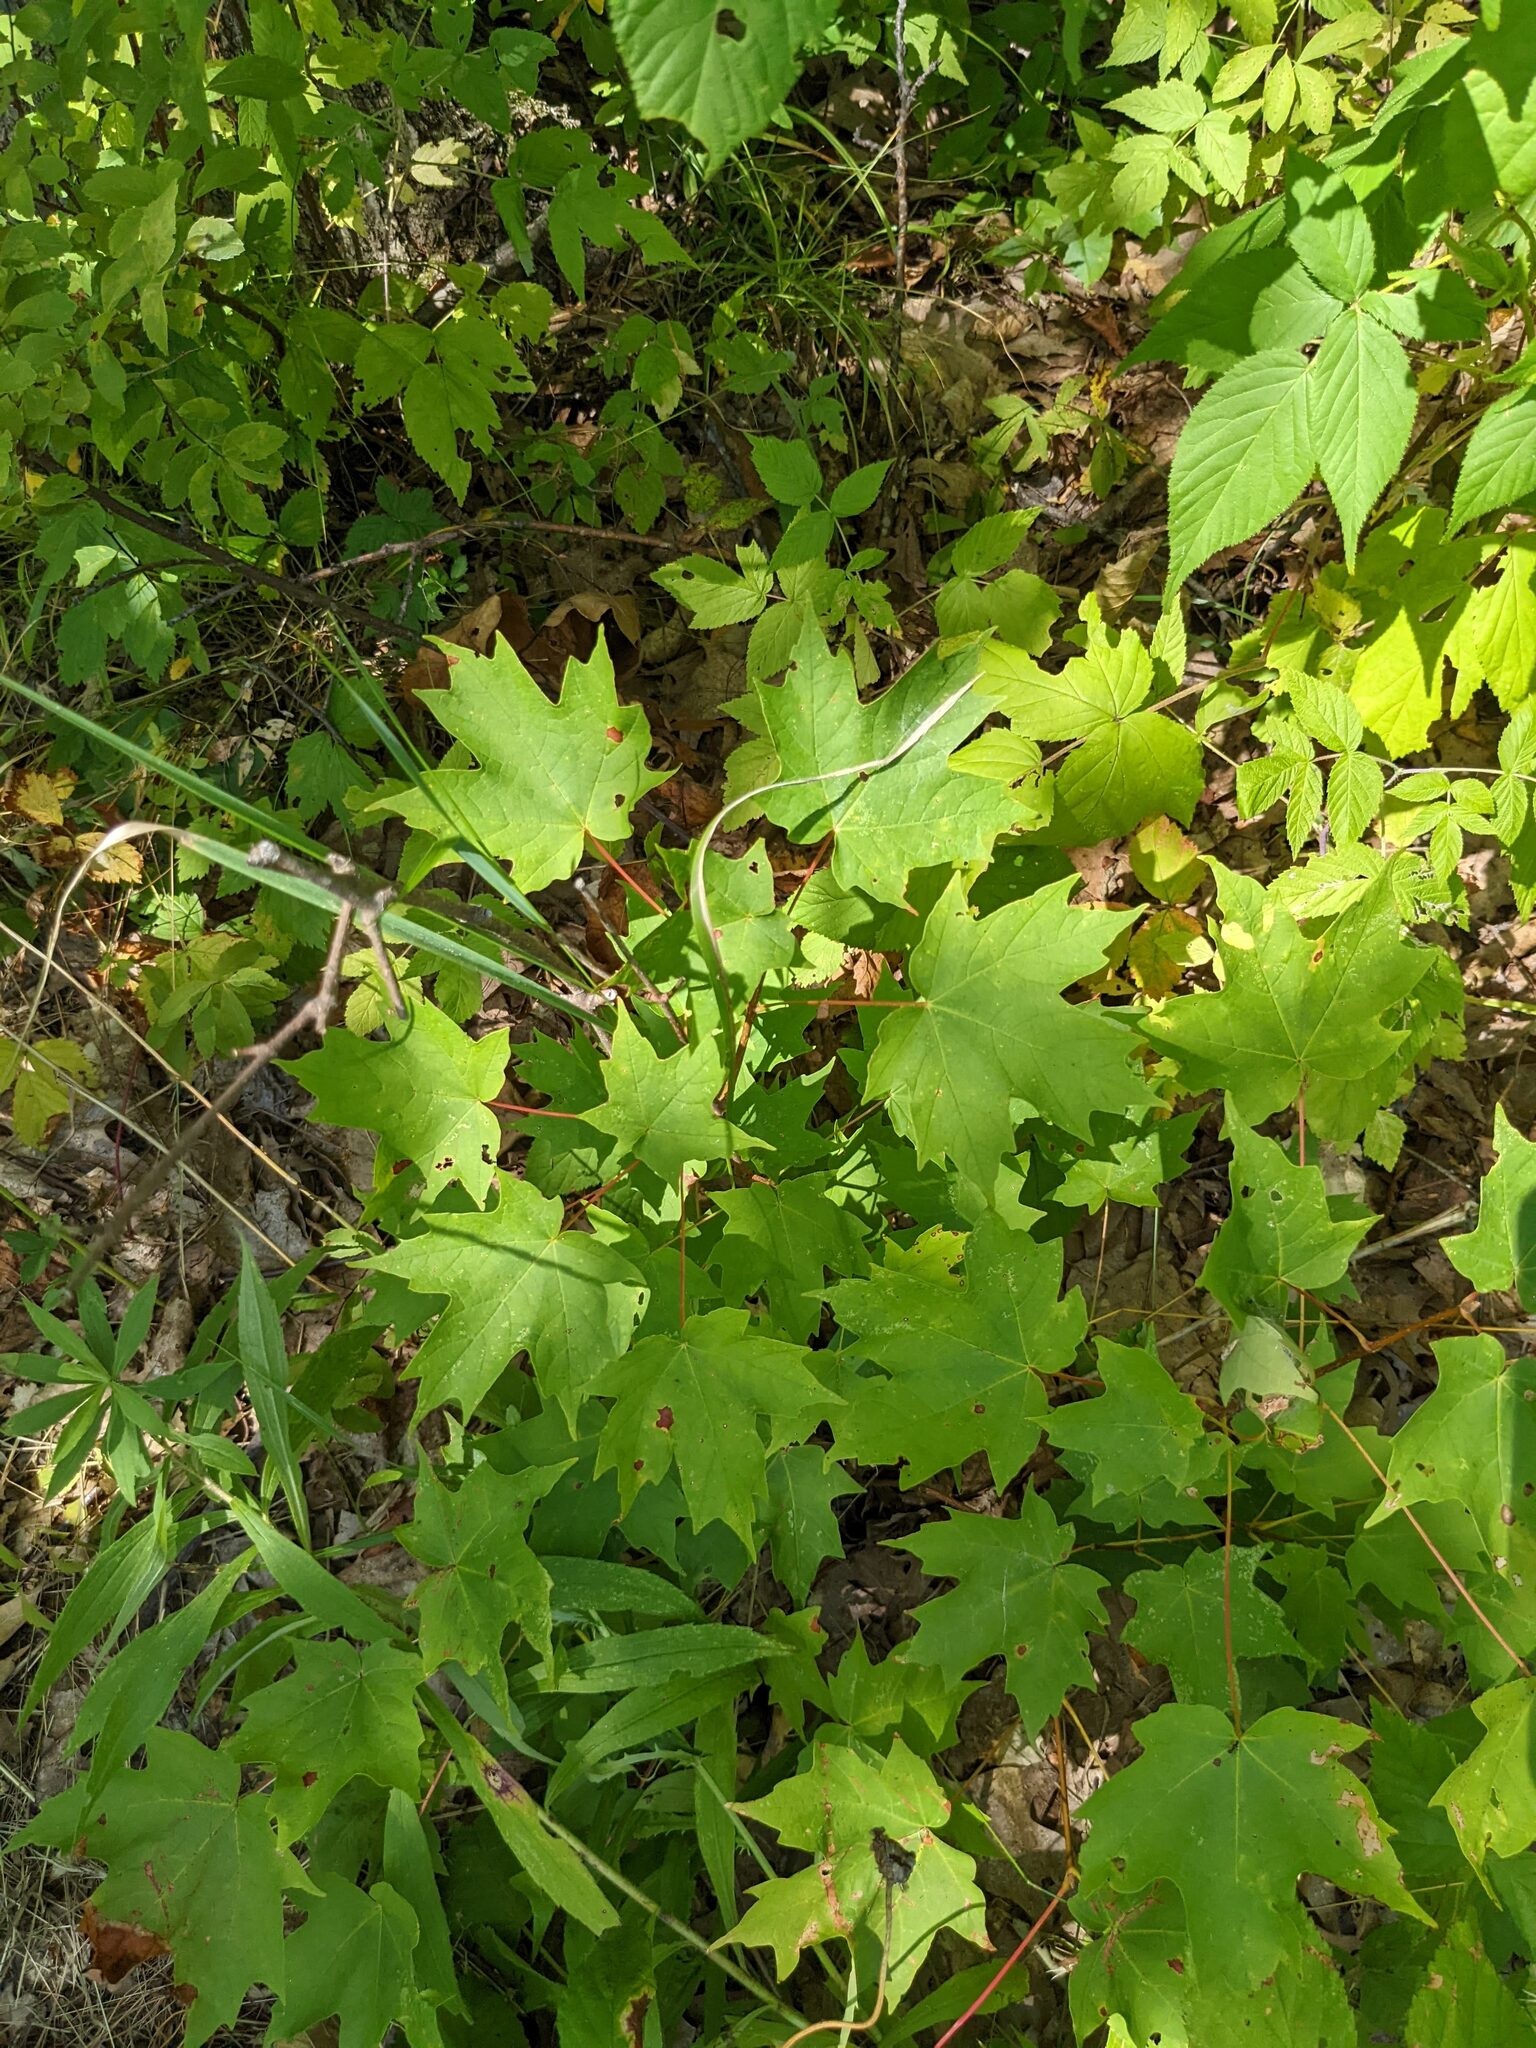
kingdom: Plantae
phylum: Tracheophyta
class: Magnoliopsida
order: Sapindales
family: Sapindaceae
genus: Acer
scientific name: Acer saccharum
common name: Sugar maple
